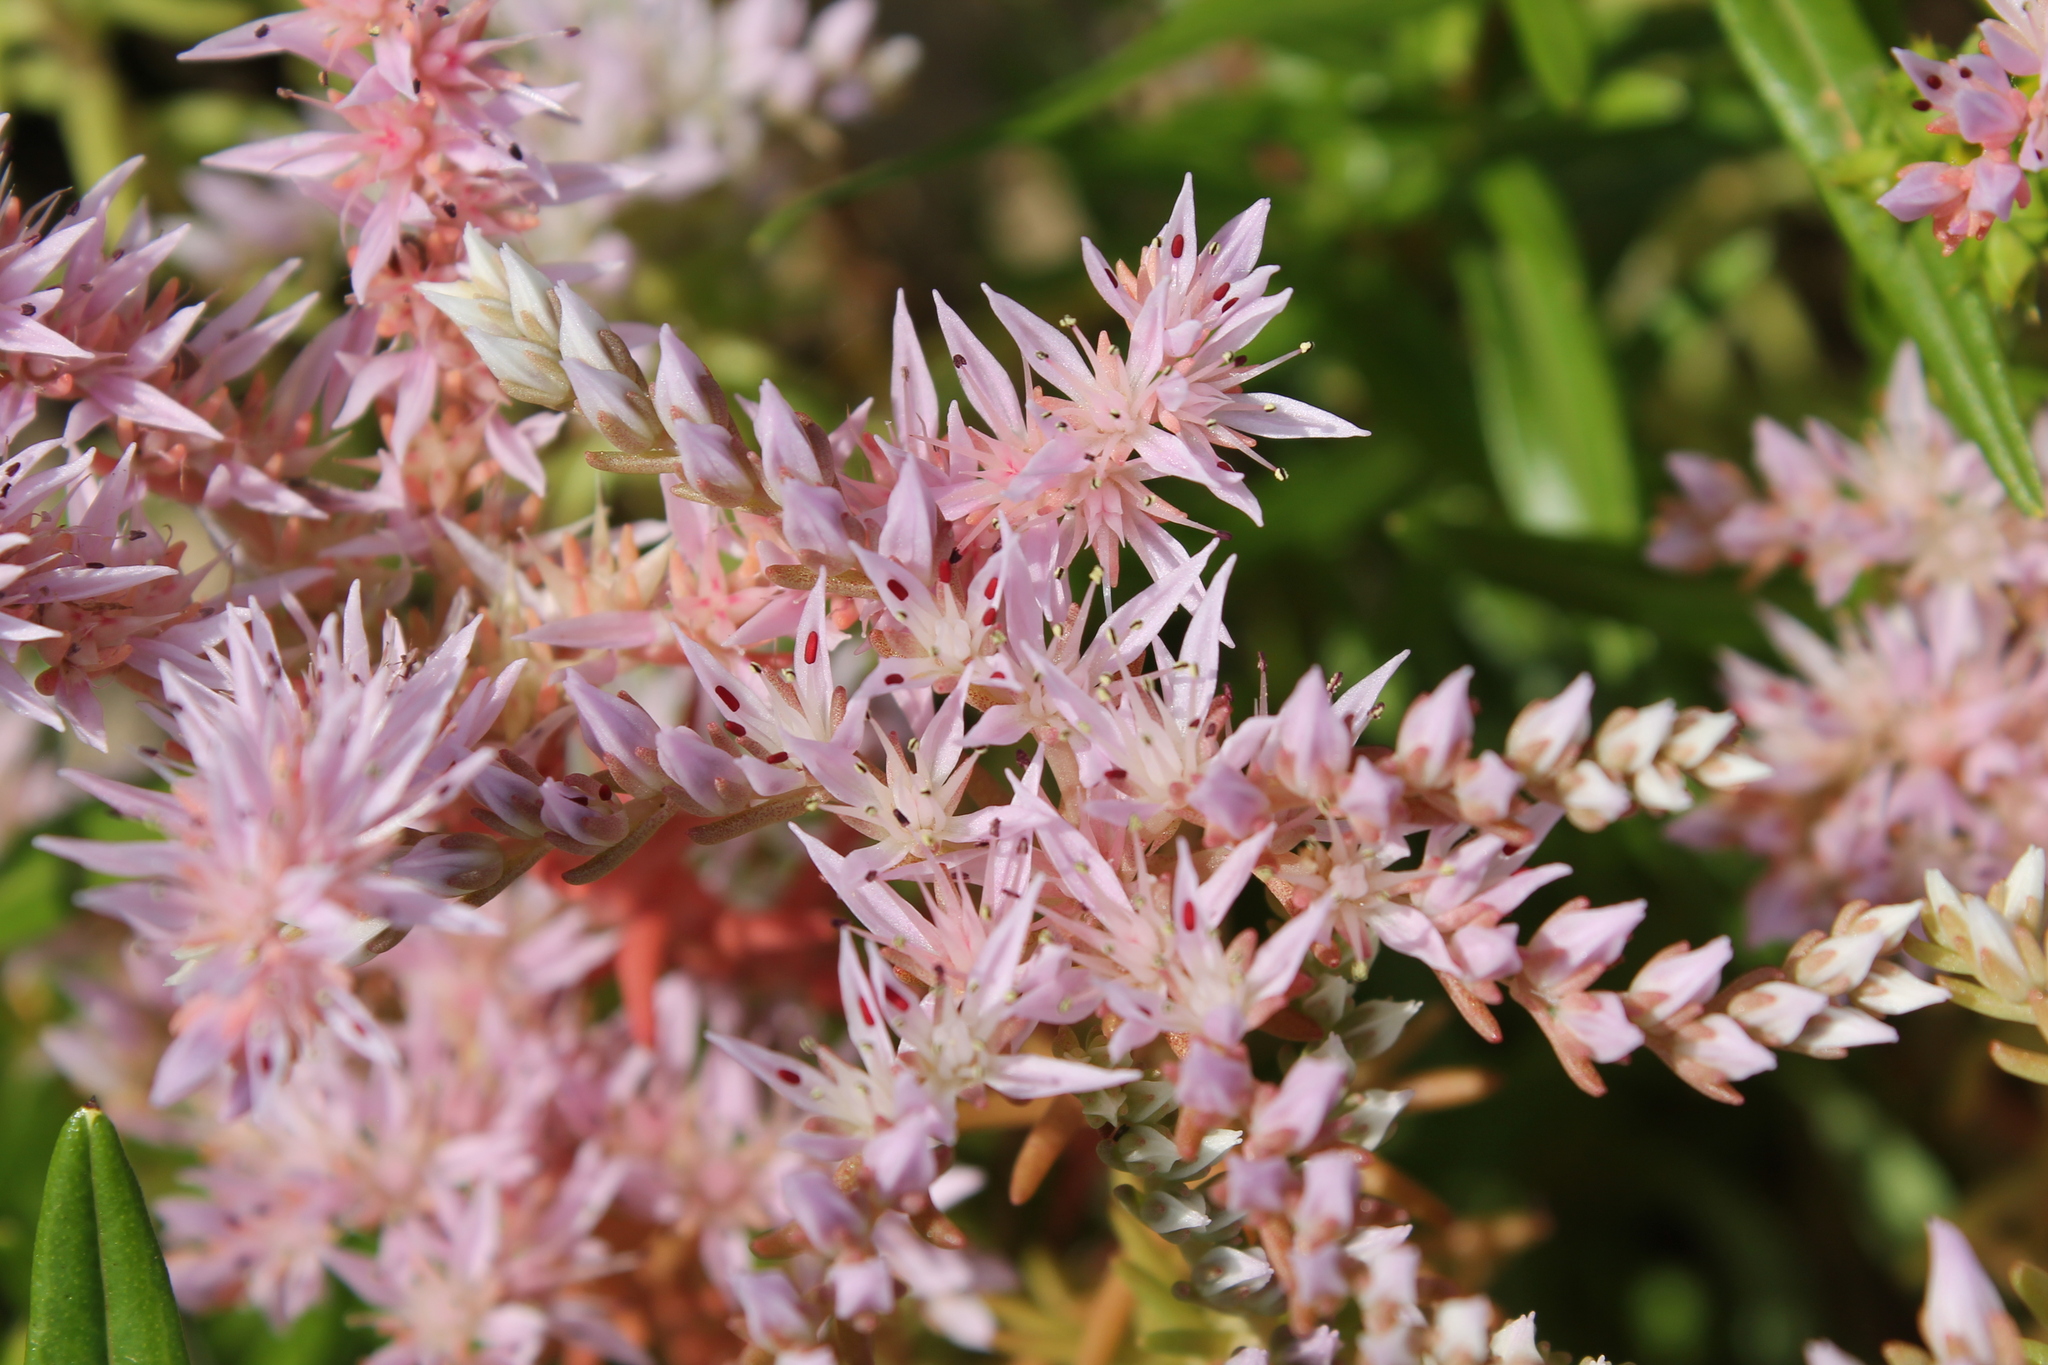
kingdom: Plantae
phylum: Tracheophyta
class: Magnoliopsida
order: Saxifragales
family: Crassulaceae
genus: Sedum
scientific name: Sedum pulchellum
